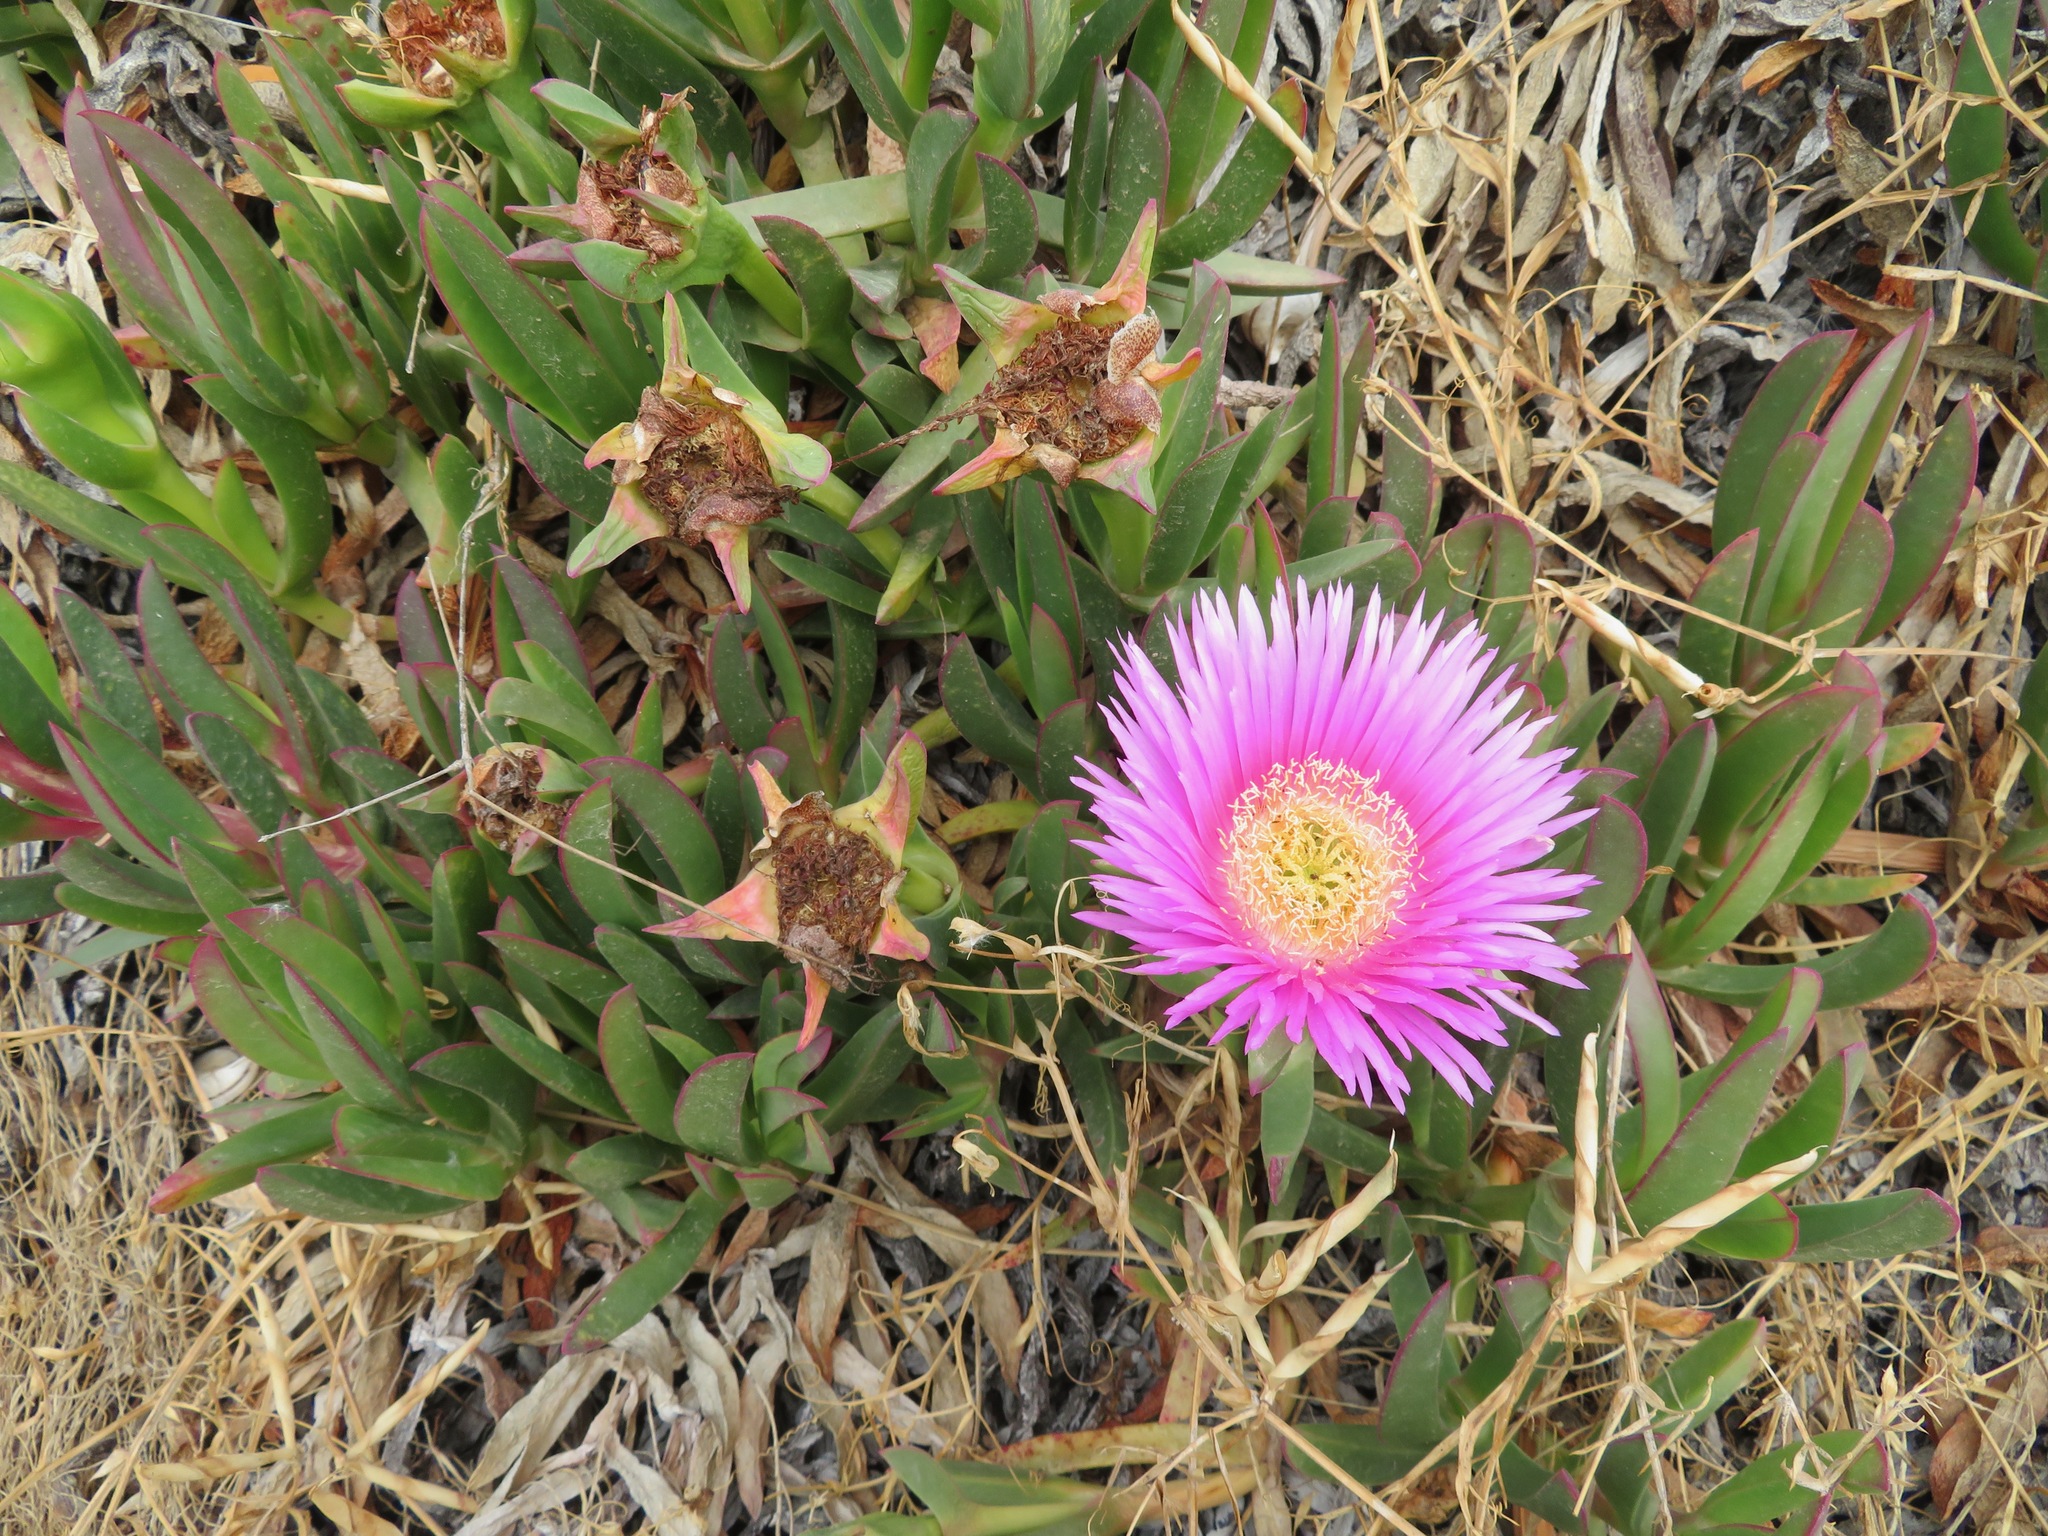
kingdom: Plantae
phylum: Tracheophyta
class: Magnoliopsida
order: Caryophyllales
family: Aizoaceae
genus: Carpobrotus
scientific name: Carpobrotus acinaciformis
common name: Sally-my-handsome
